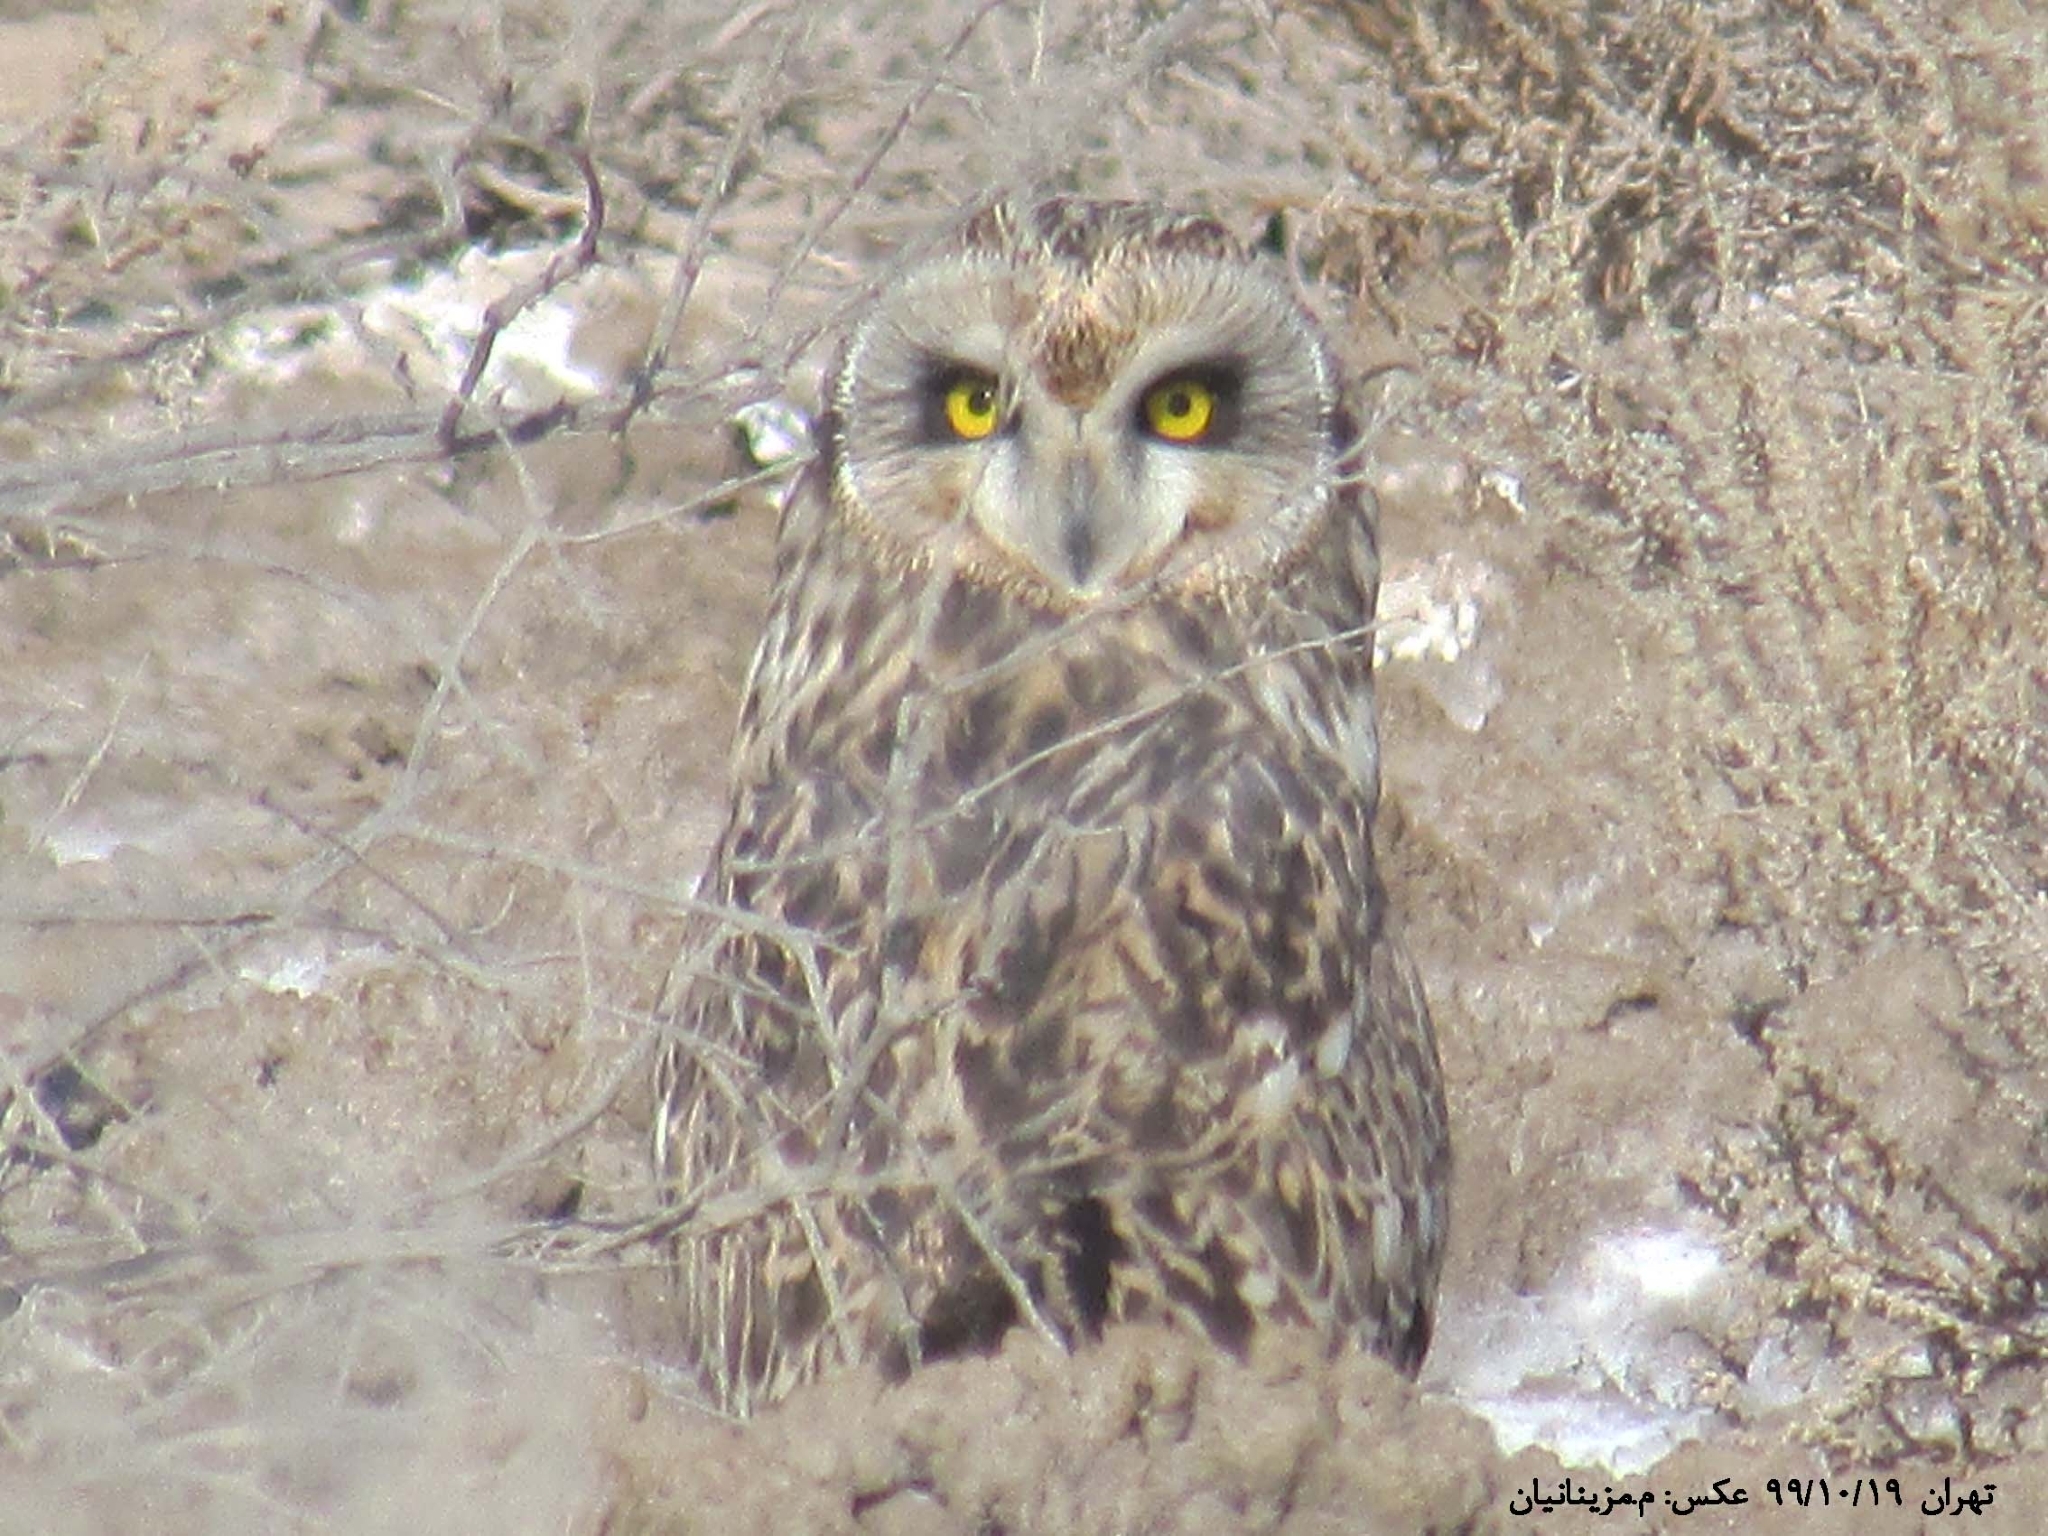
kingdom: Animalia
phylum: Chordata
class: Aves
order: Strigiformes
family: Strigidae
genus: Asio
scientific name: Asio flammeus
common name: Short-eared owl
